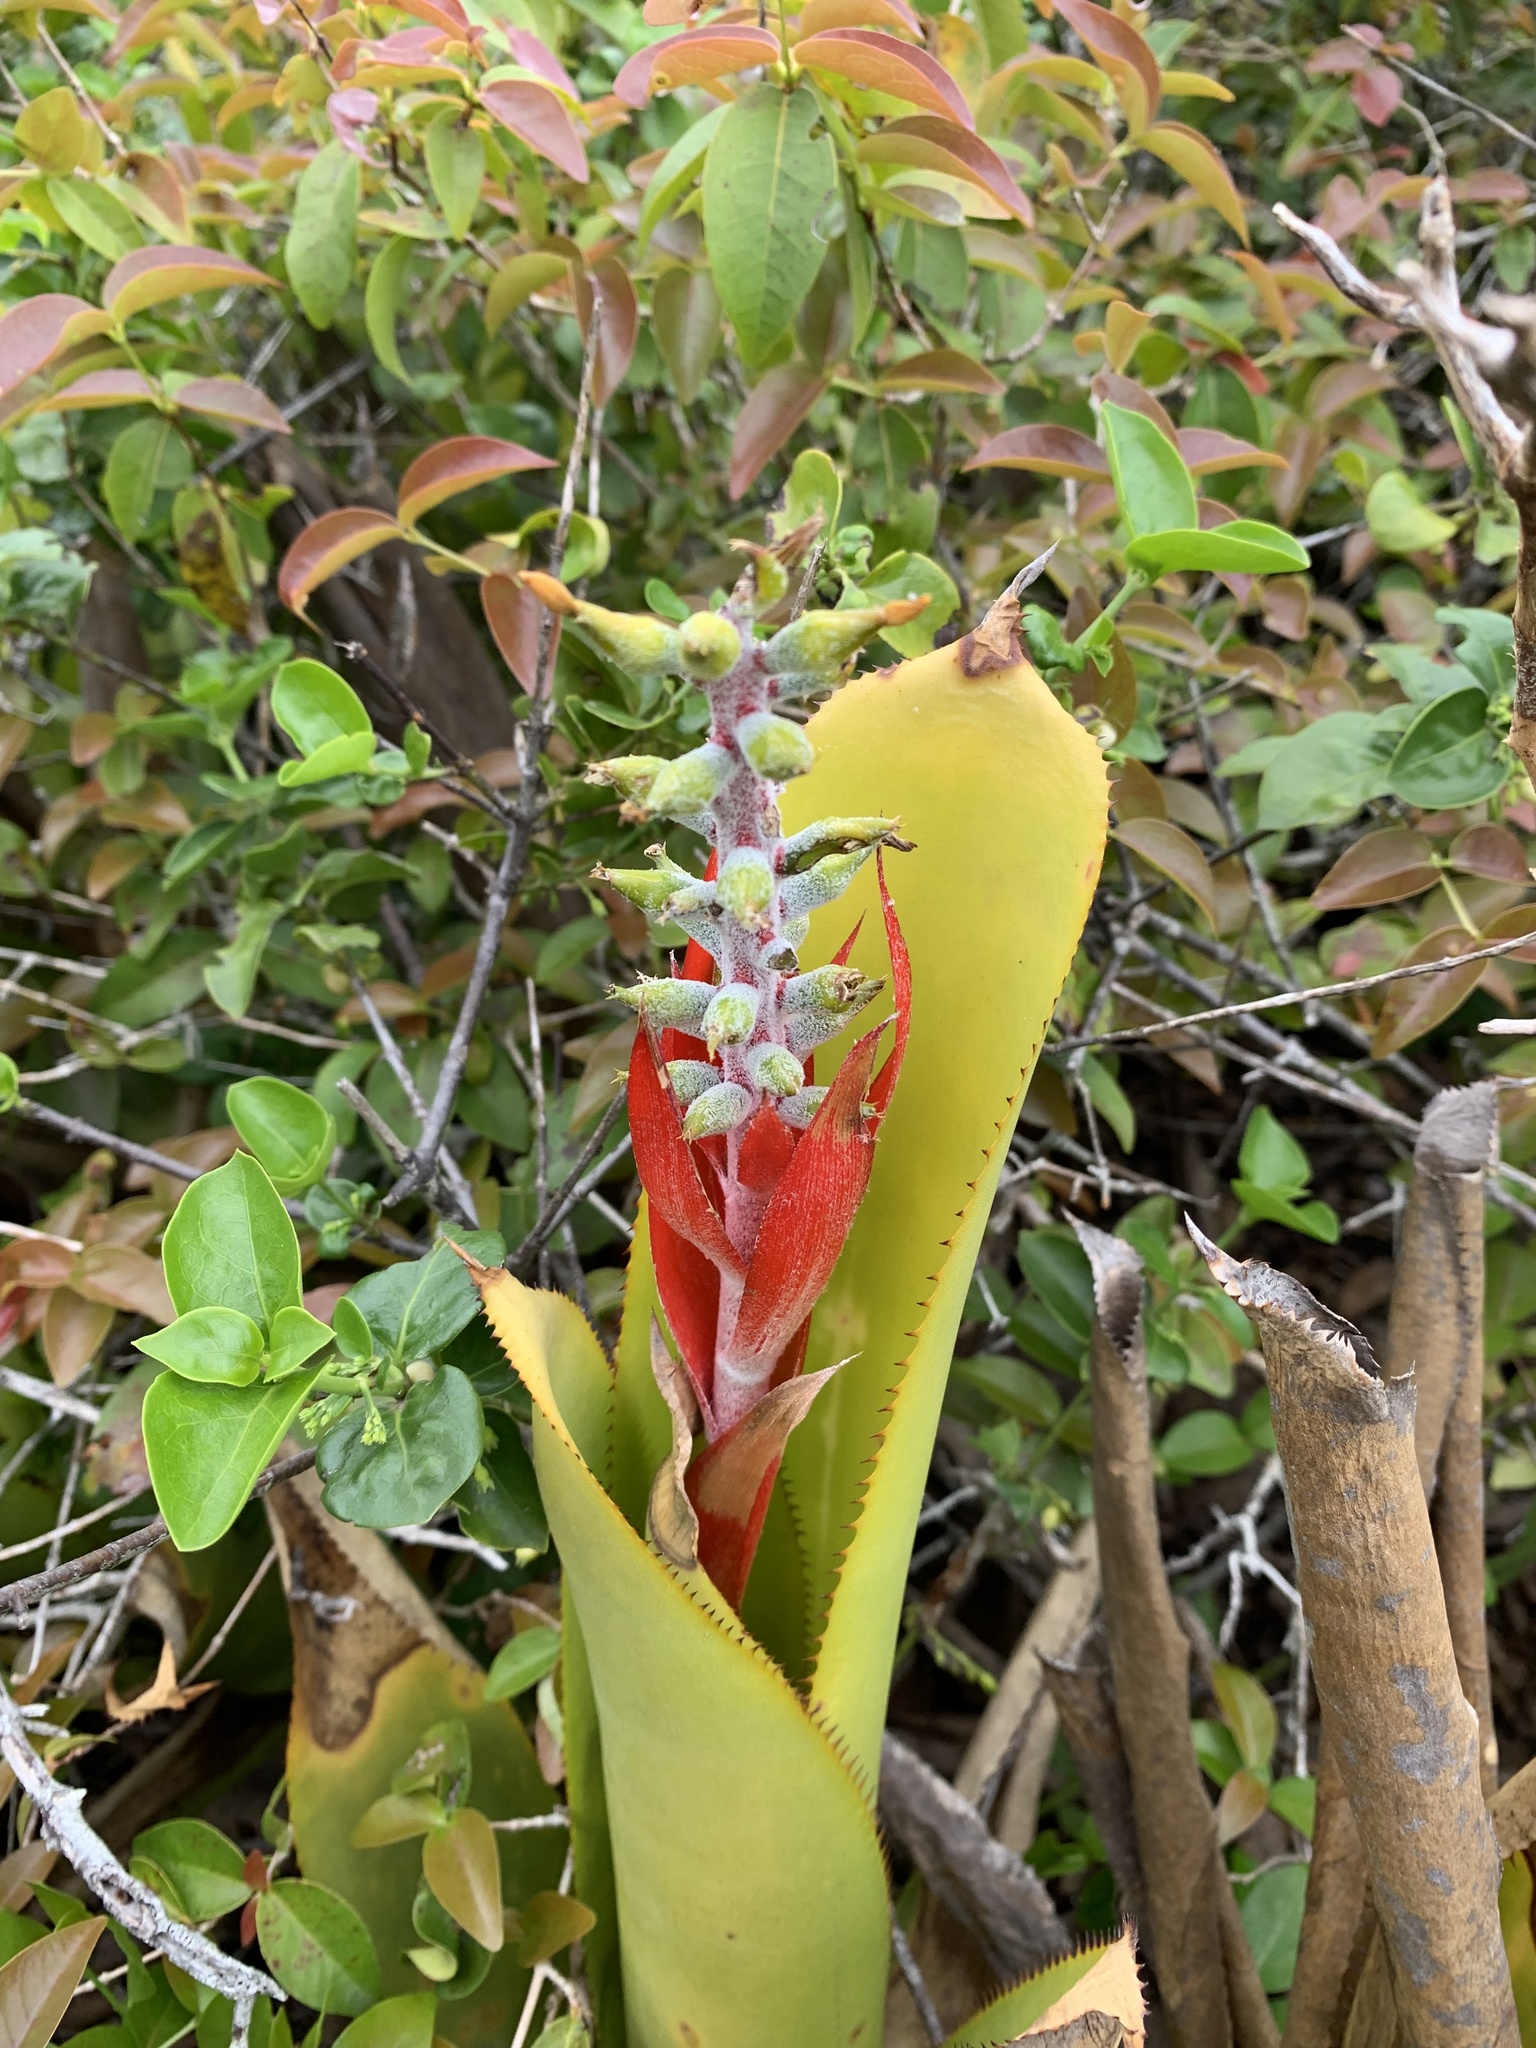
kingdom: Plantae
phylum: Tracheophyta
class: Liliopsida
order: Poales
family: Bromeliaceae
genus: Aechmea
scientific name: Aechmea nudicaulis
